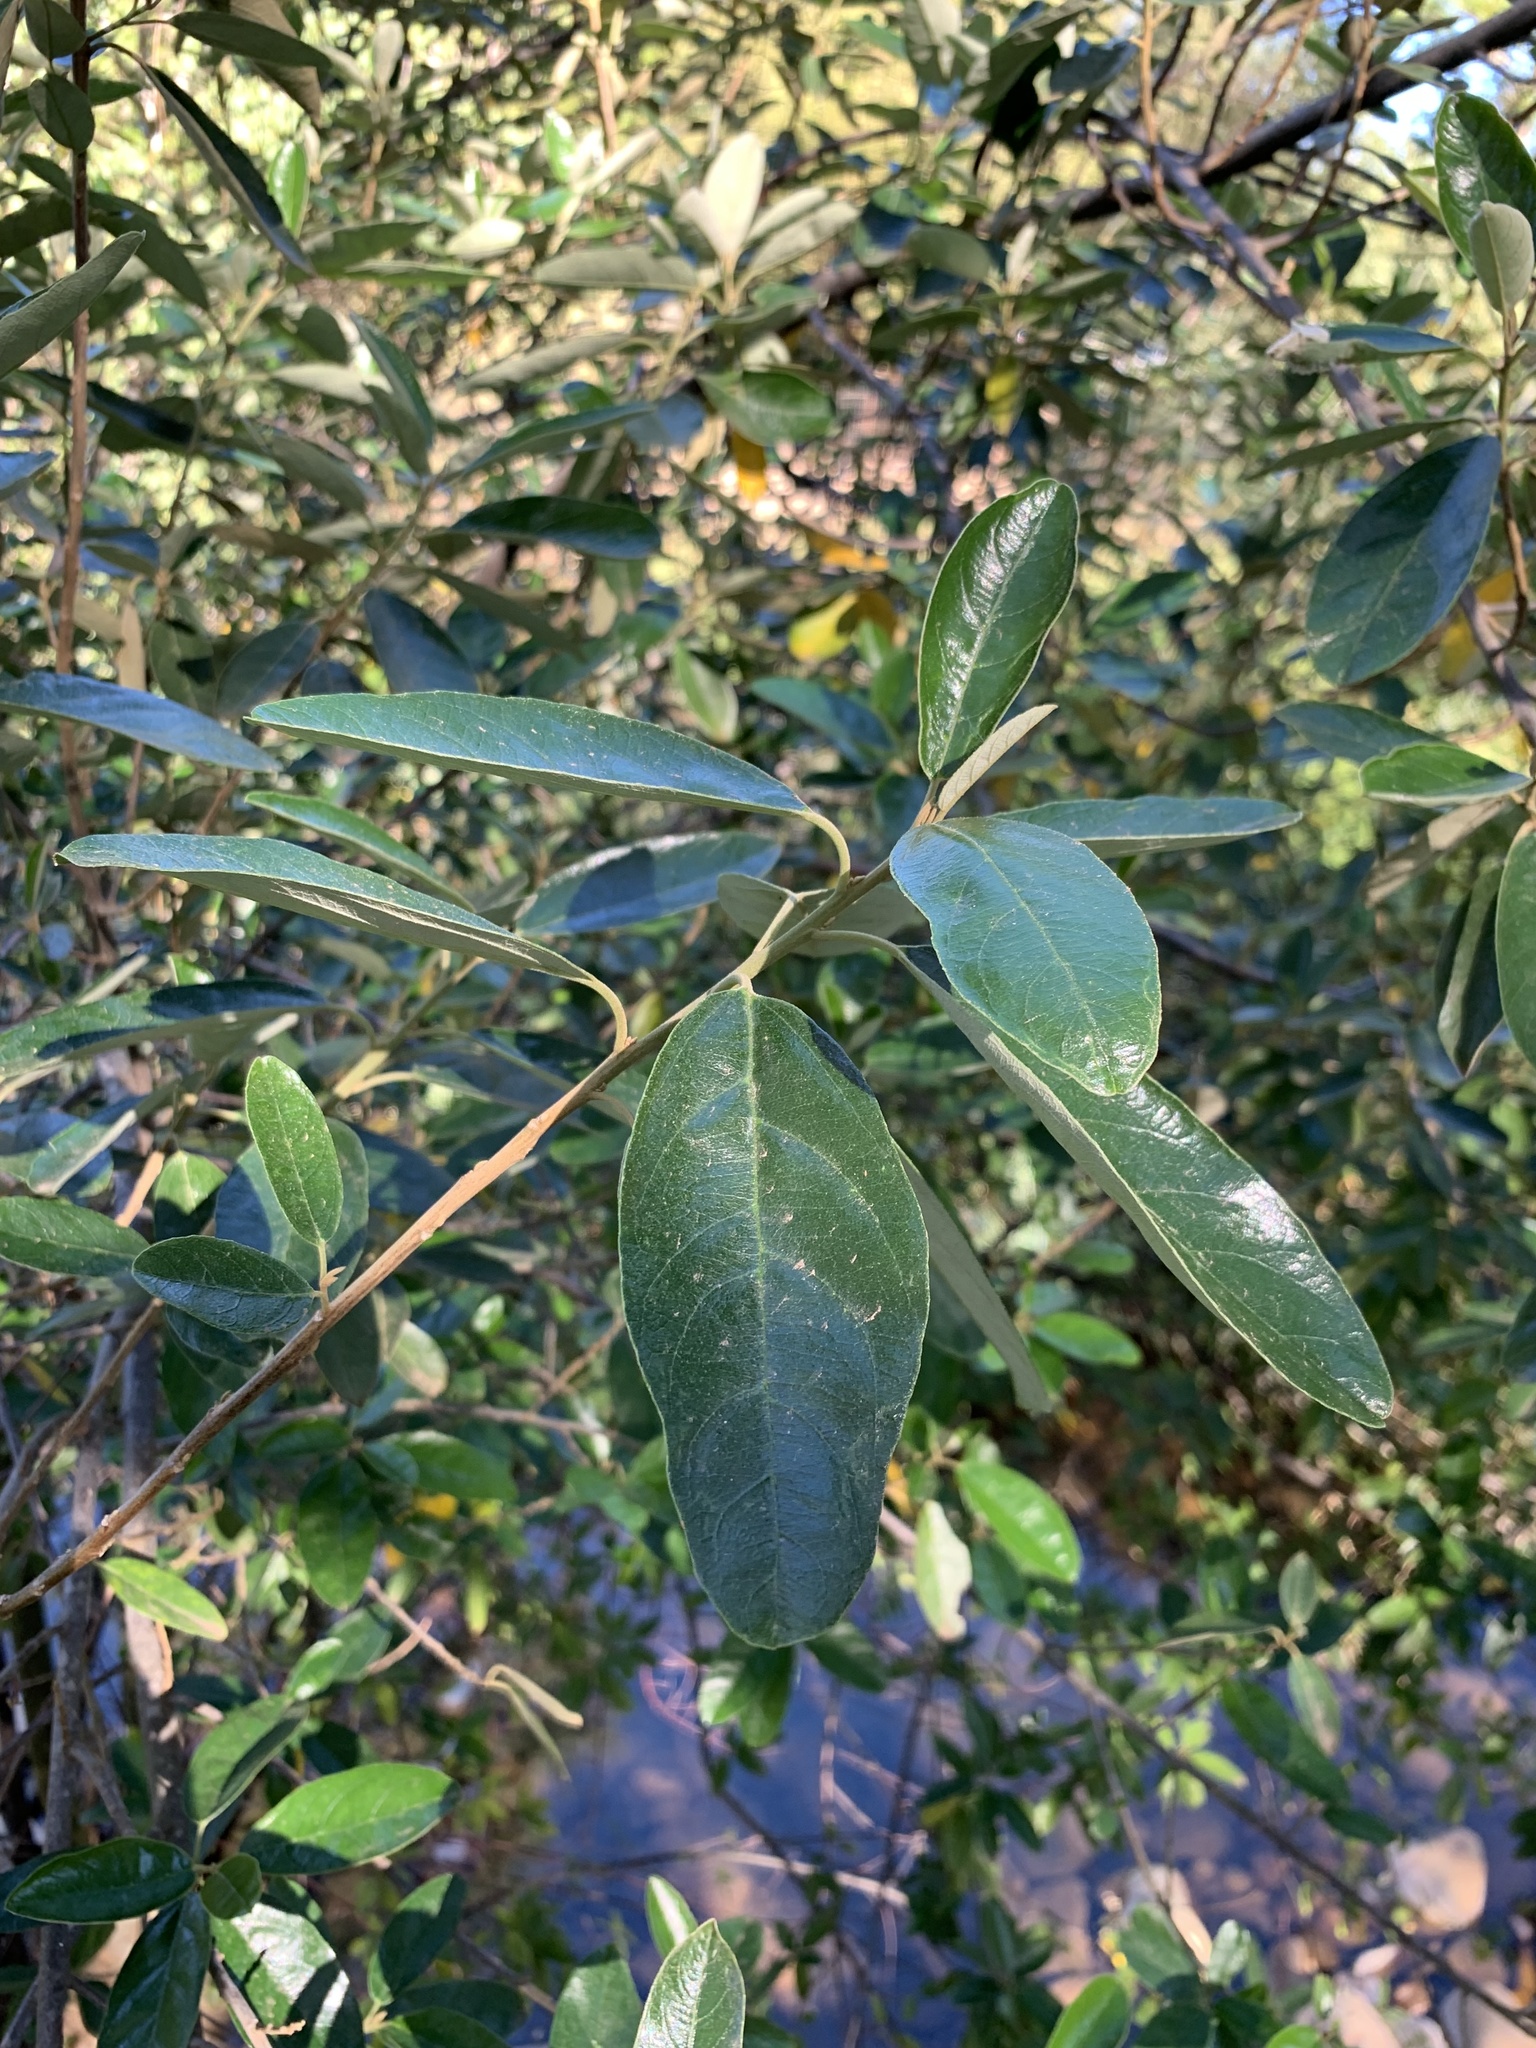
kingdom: Plantae
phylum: Tracheophyta
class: Magnoliopsida
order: Malpighiales
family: Achariaceae
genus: Kiggelaria
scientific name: Kiggelaria africana
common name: Wild peach
